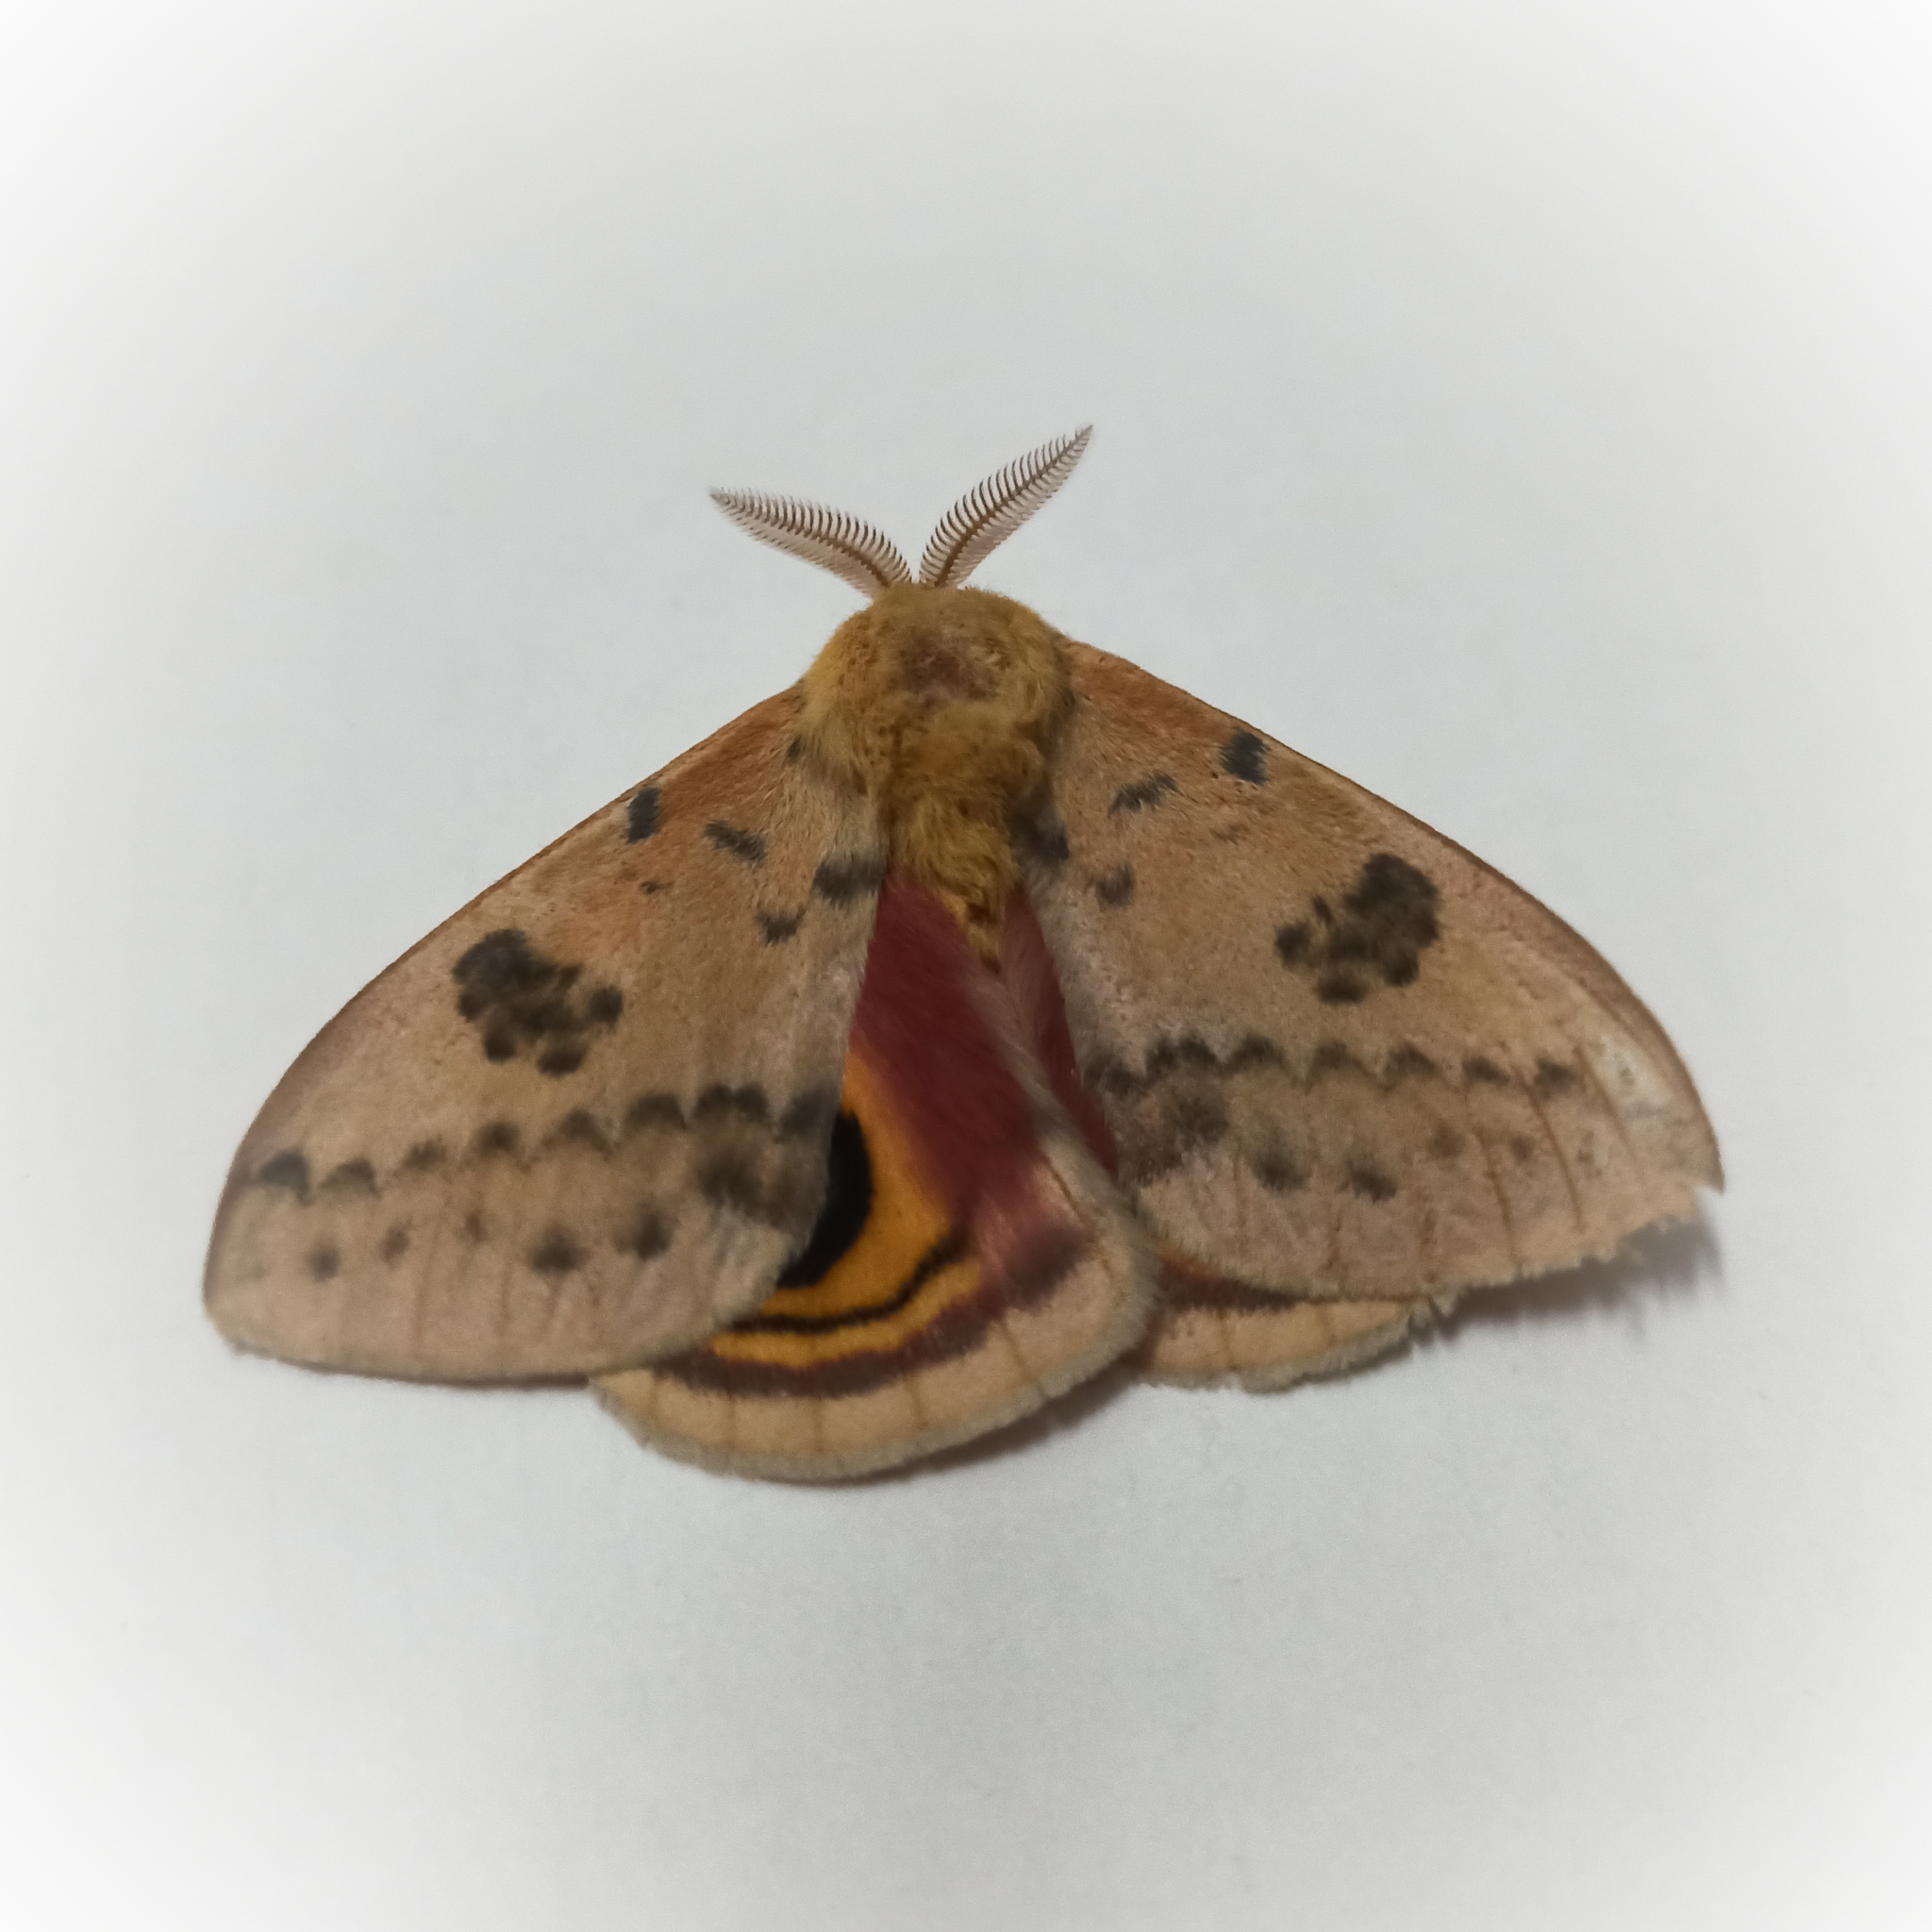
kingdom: Animalia
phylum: Arthropoda
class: Insecta
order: Lepidoptera
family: Saturniidae
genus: Automeris
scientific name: Automeris io
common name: Io moth
